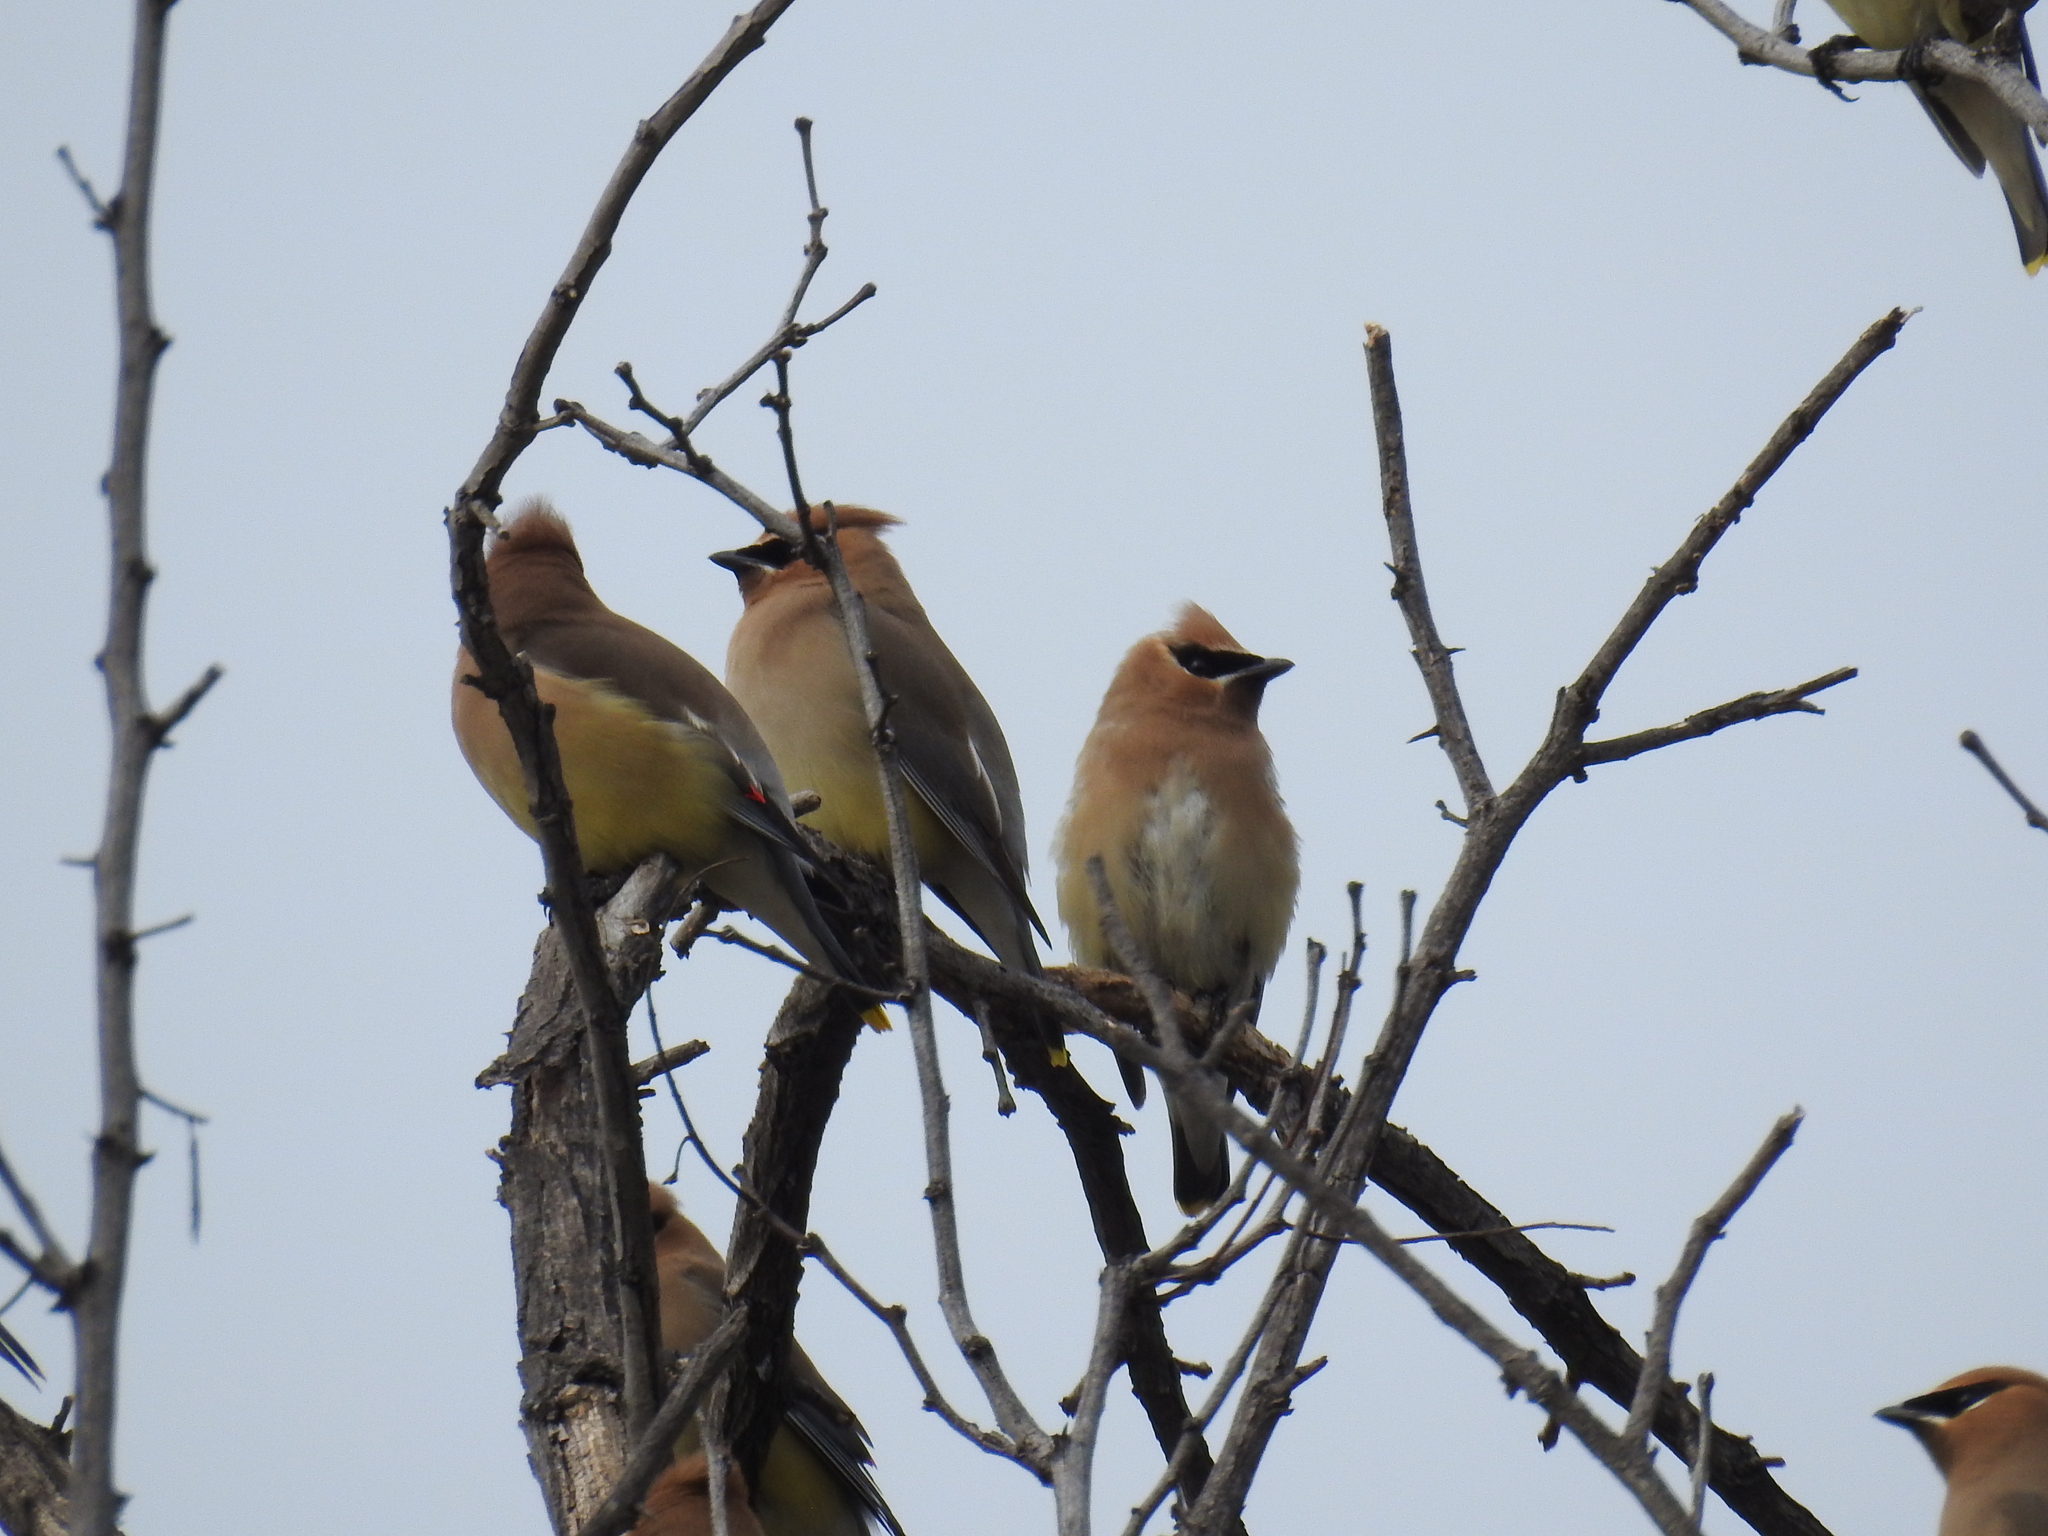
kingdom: Animalia
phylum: Chordata
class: Aves
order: Passeriformes
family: Bombycillidae
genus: Bombycilla
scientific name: Bombycilla cedrorum
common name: Cedar waxwing
